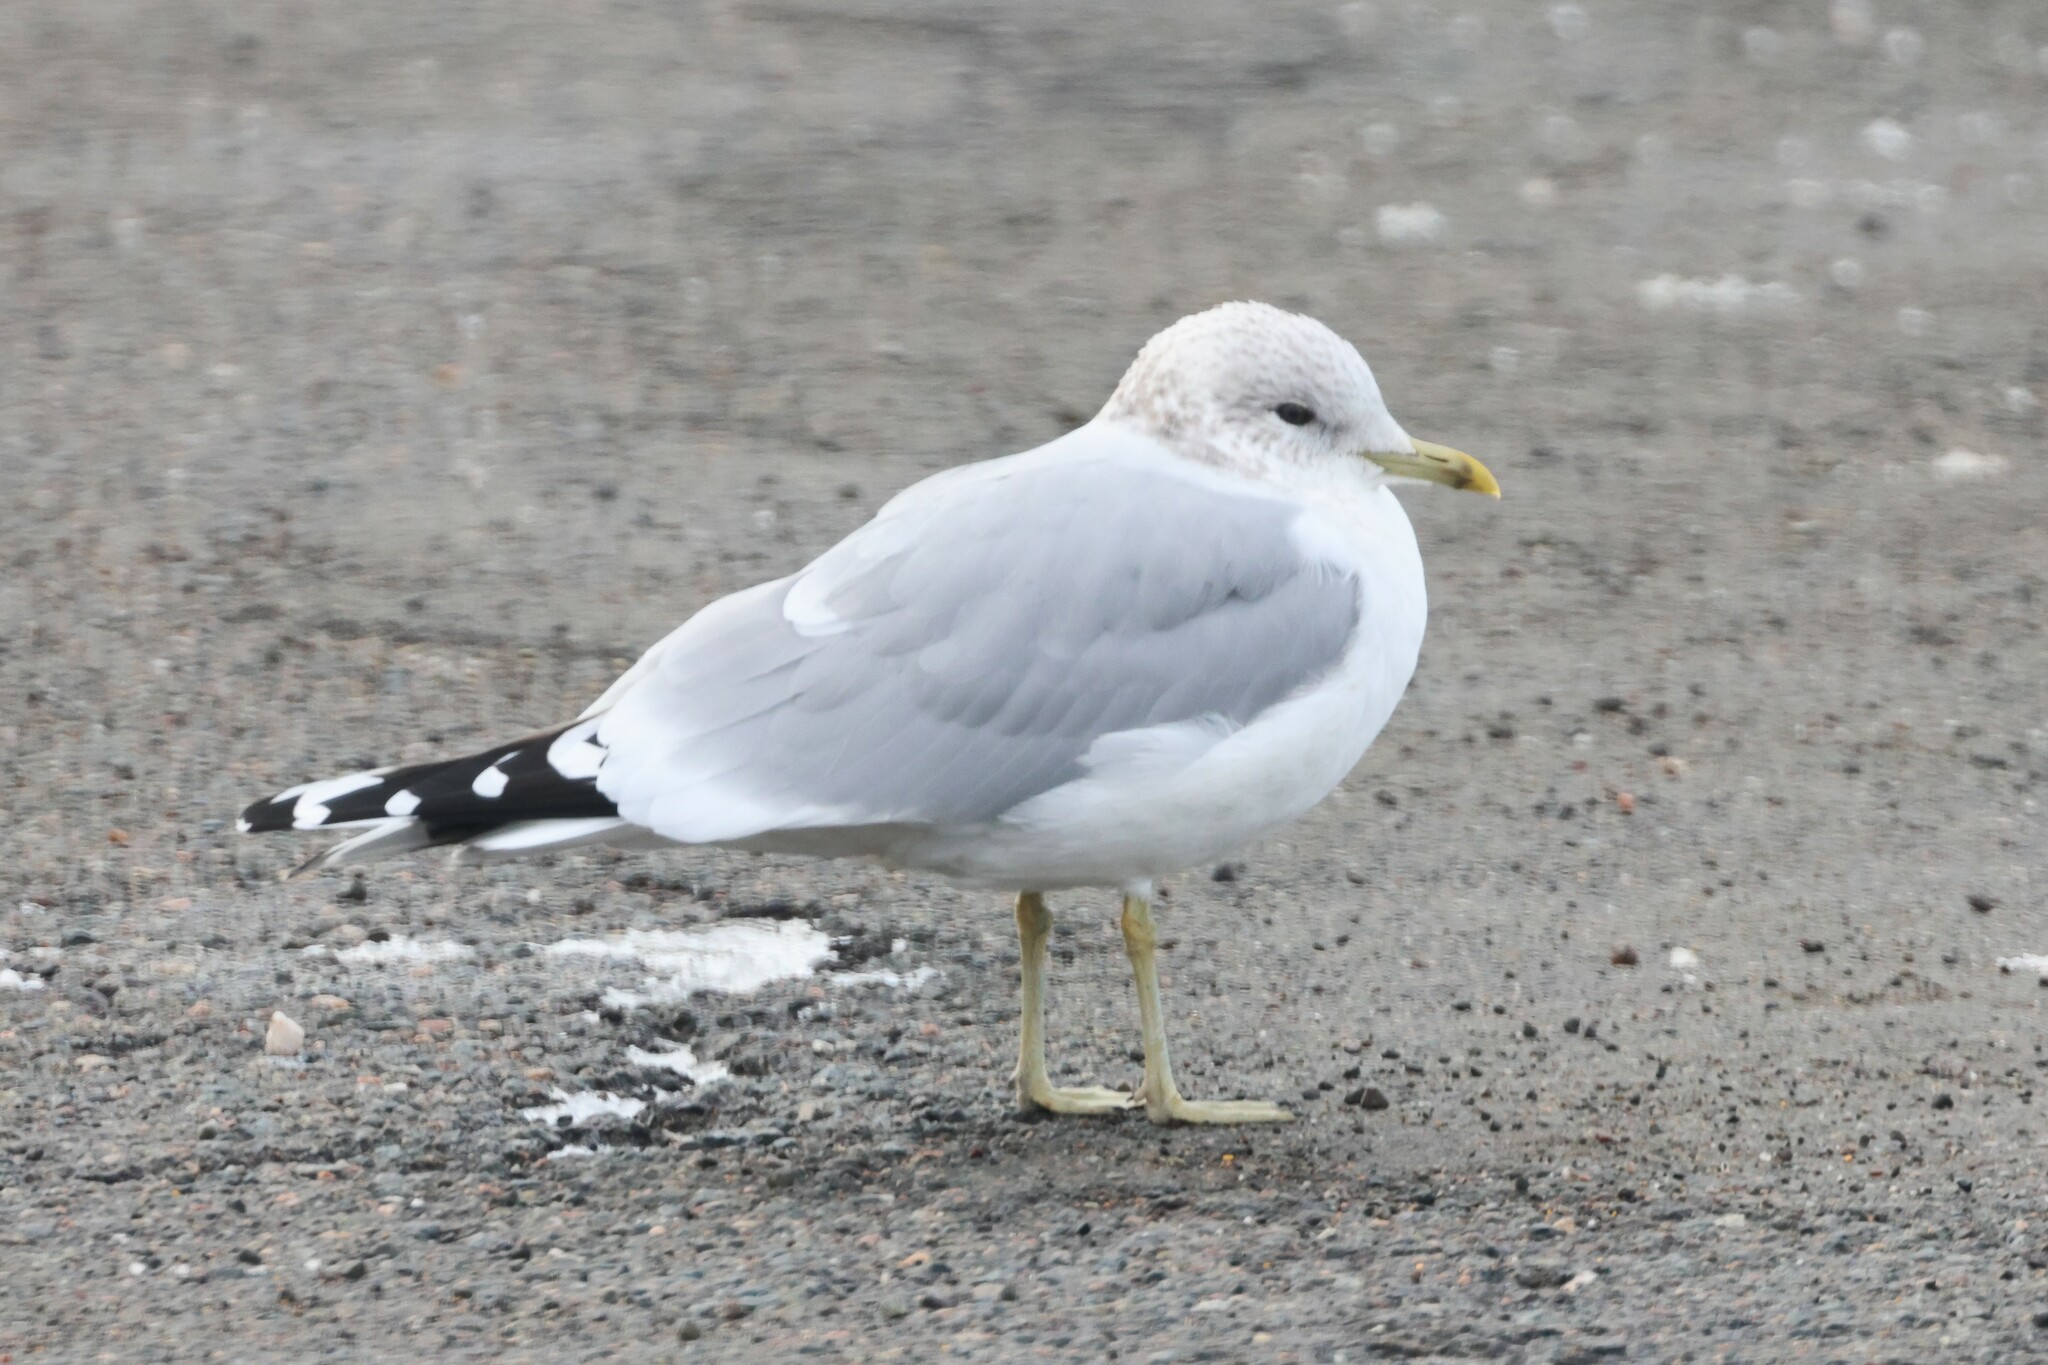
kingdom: Animalia
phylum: Chordata
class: Aves
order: Charadriiformes
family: Laridae
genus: Larus
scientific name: Larus canus
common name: Mew gull
